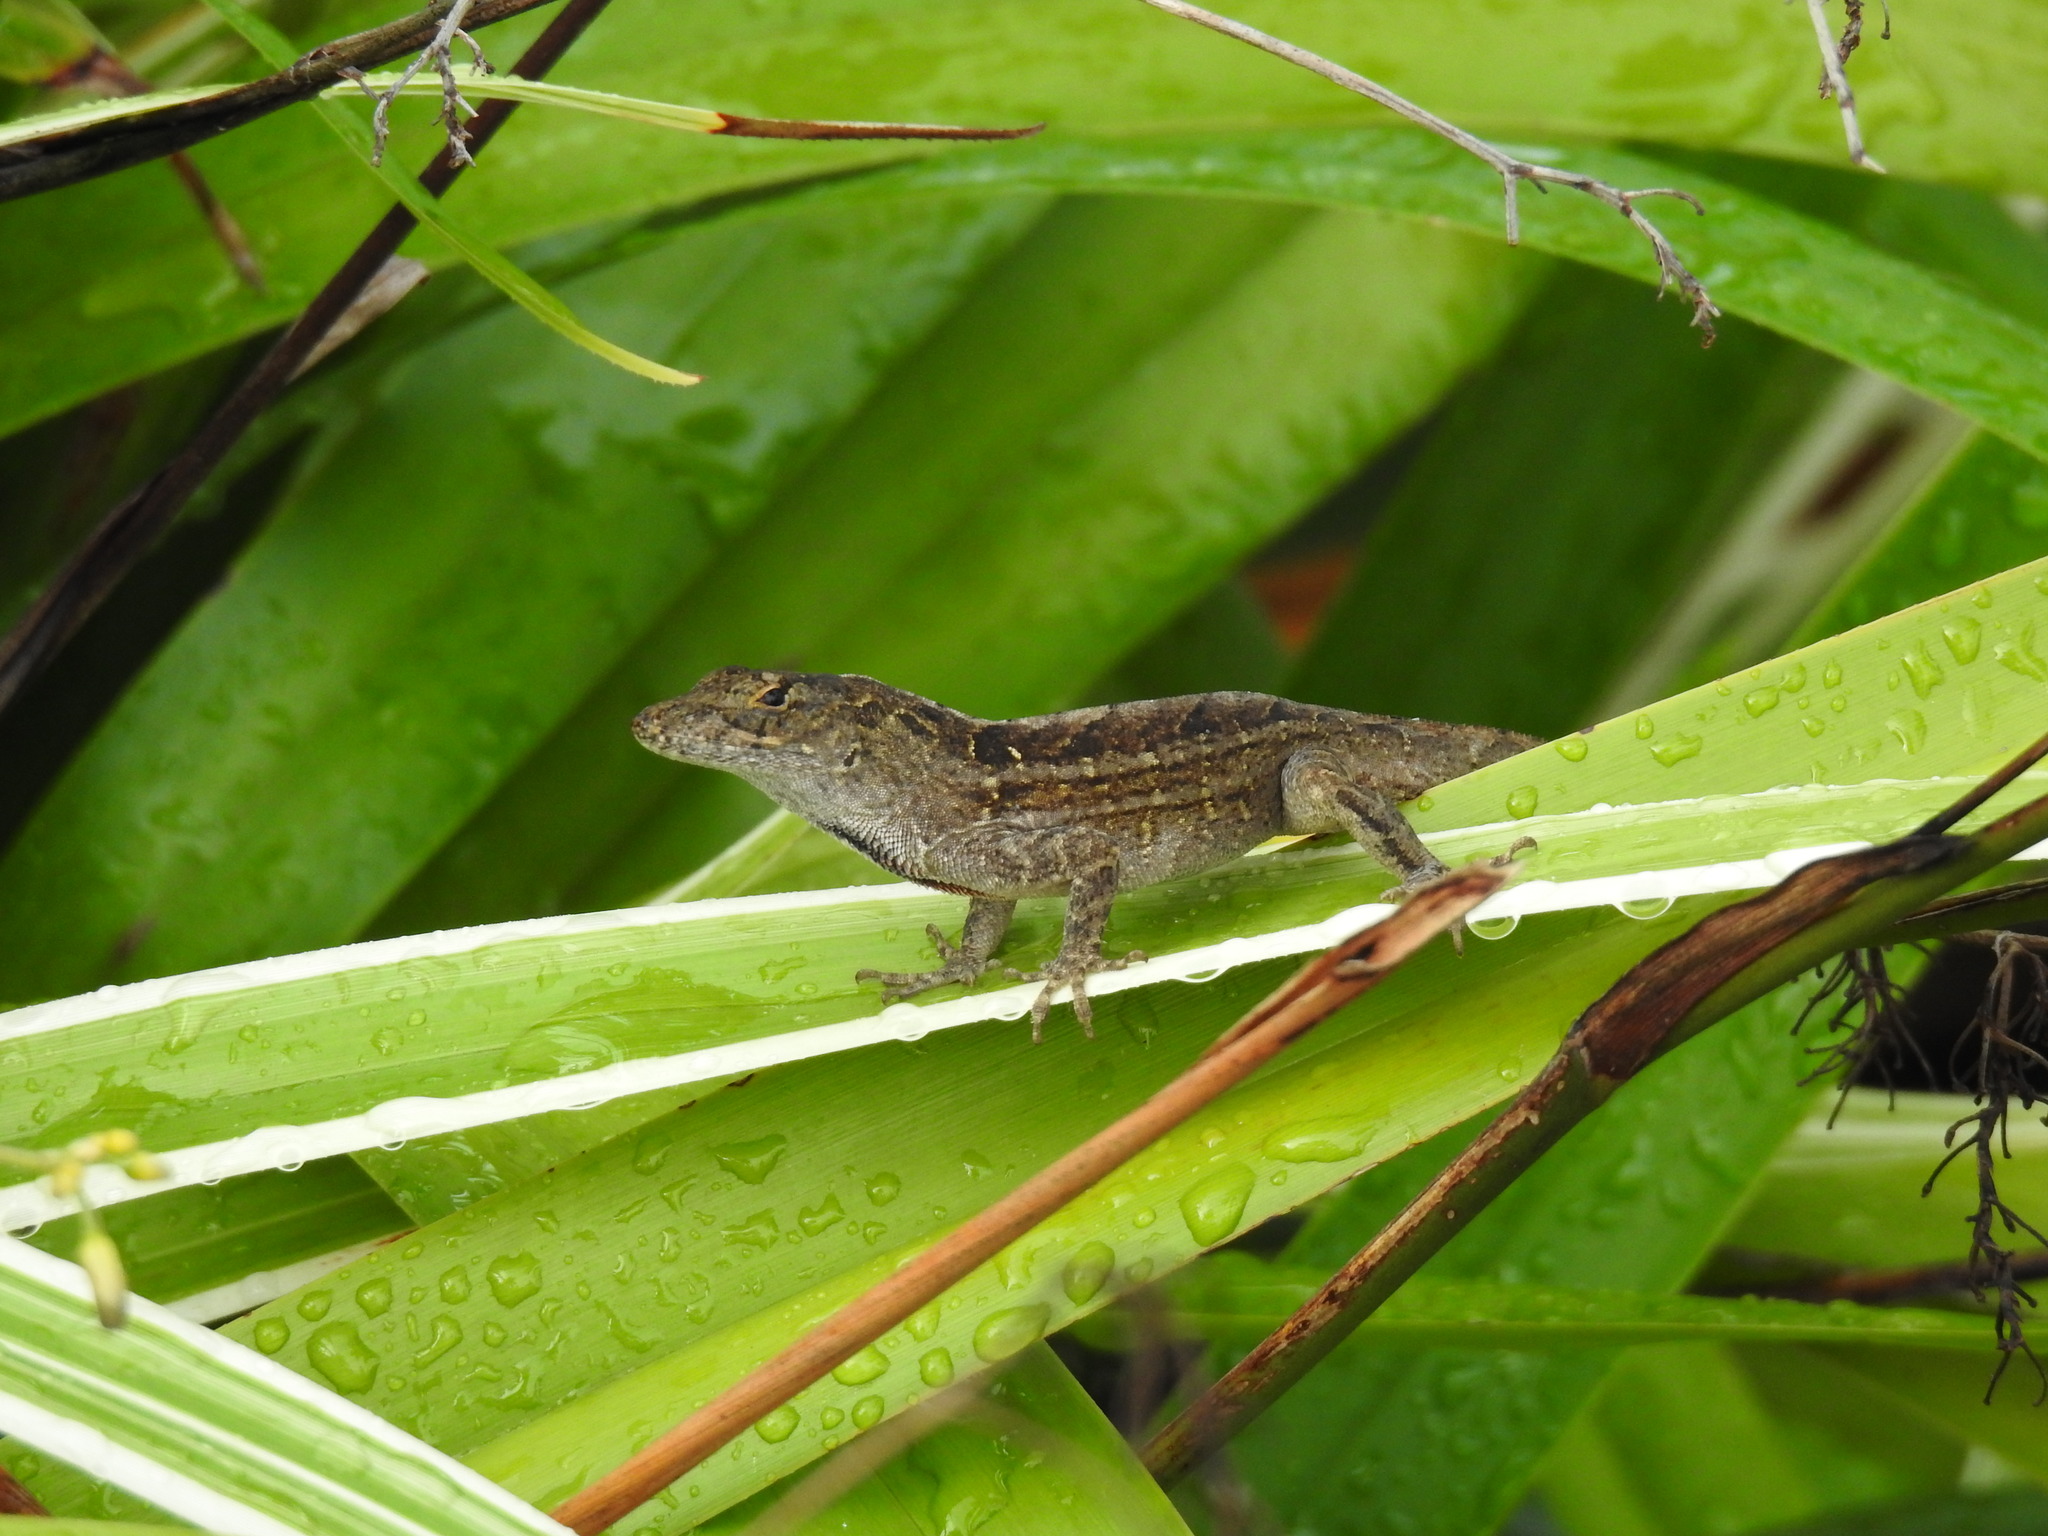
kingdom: Animalia
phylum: Chordata
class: Squamata
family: Dactyloidae
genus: Anolis
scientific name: Anolis sagrei
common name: Brown anole
